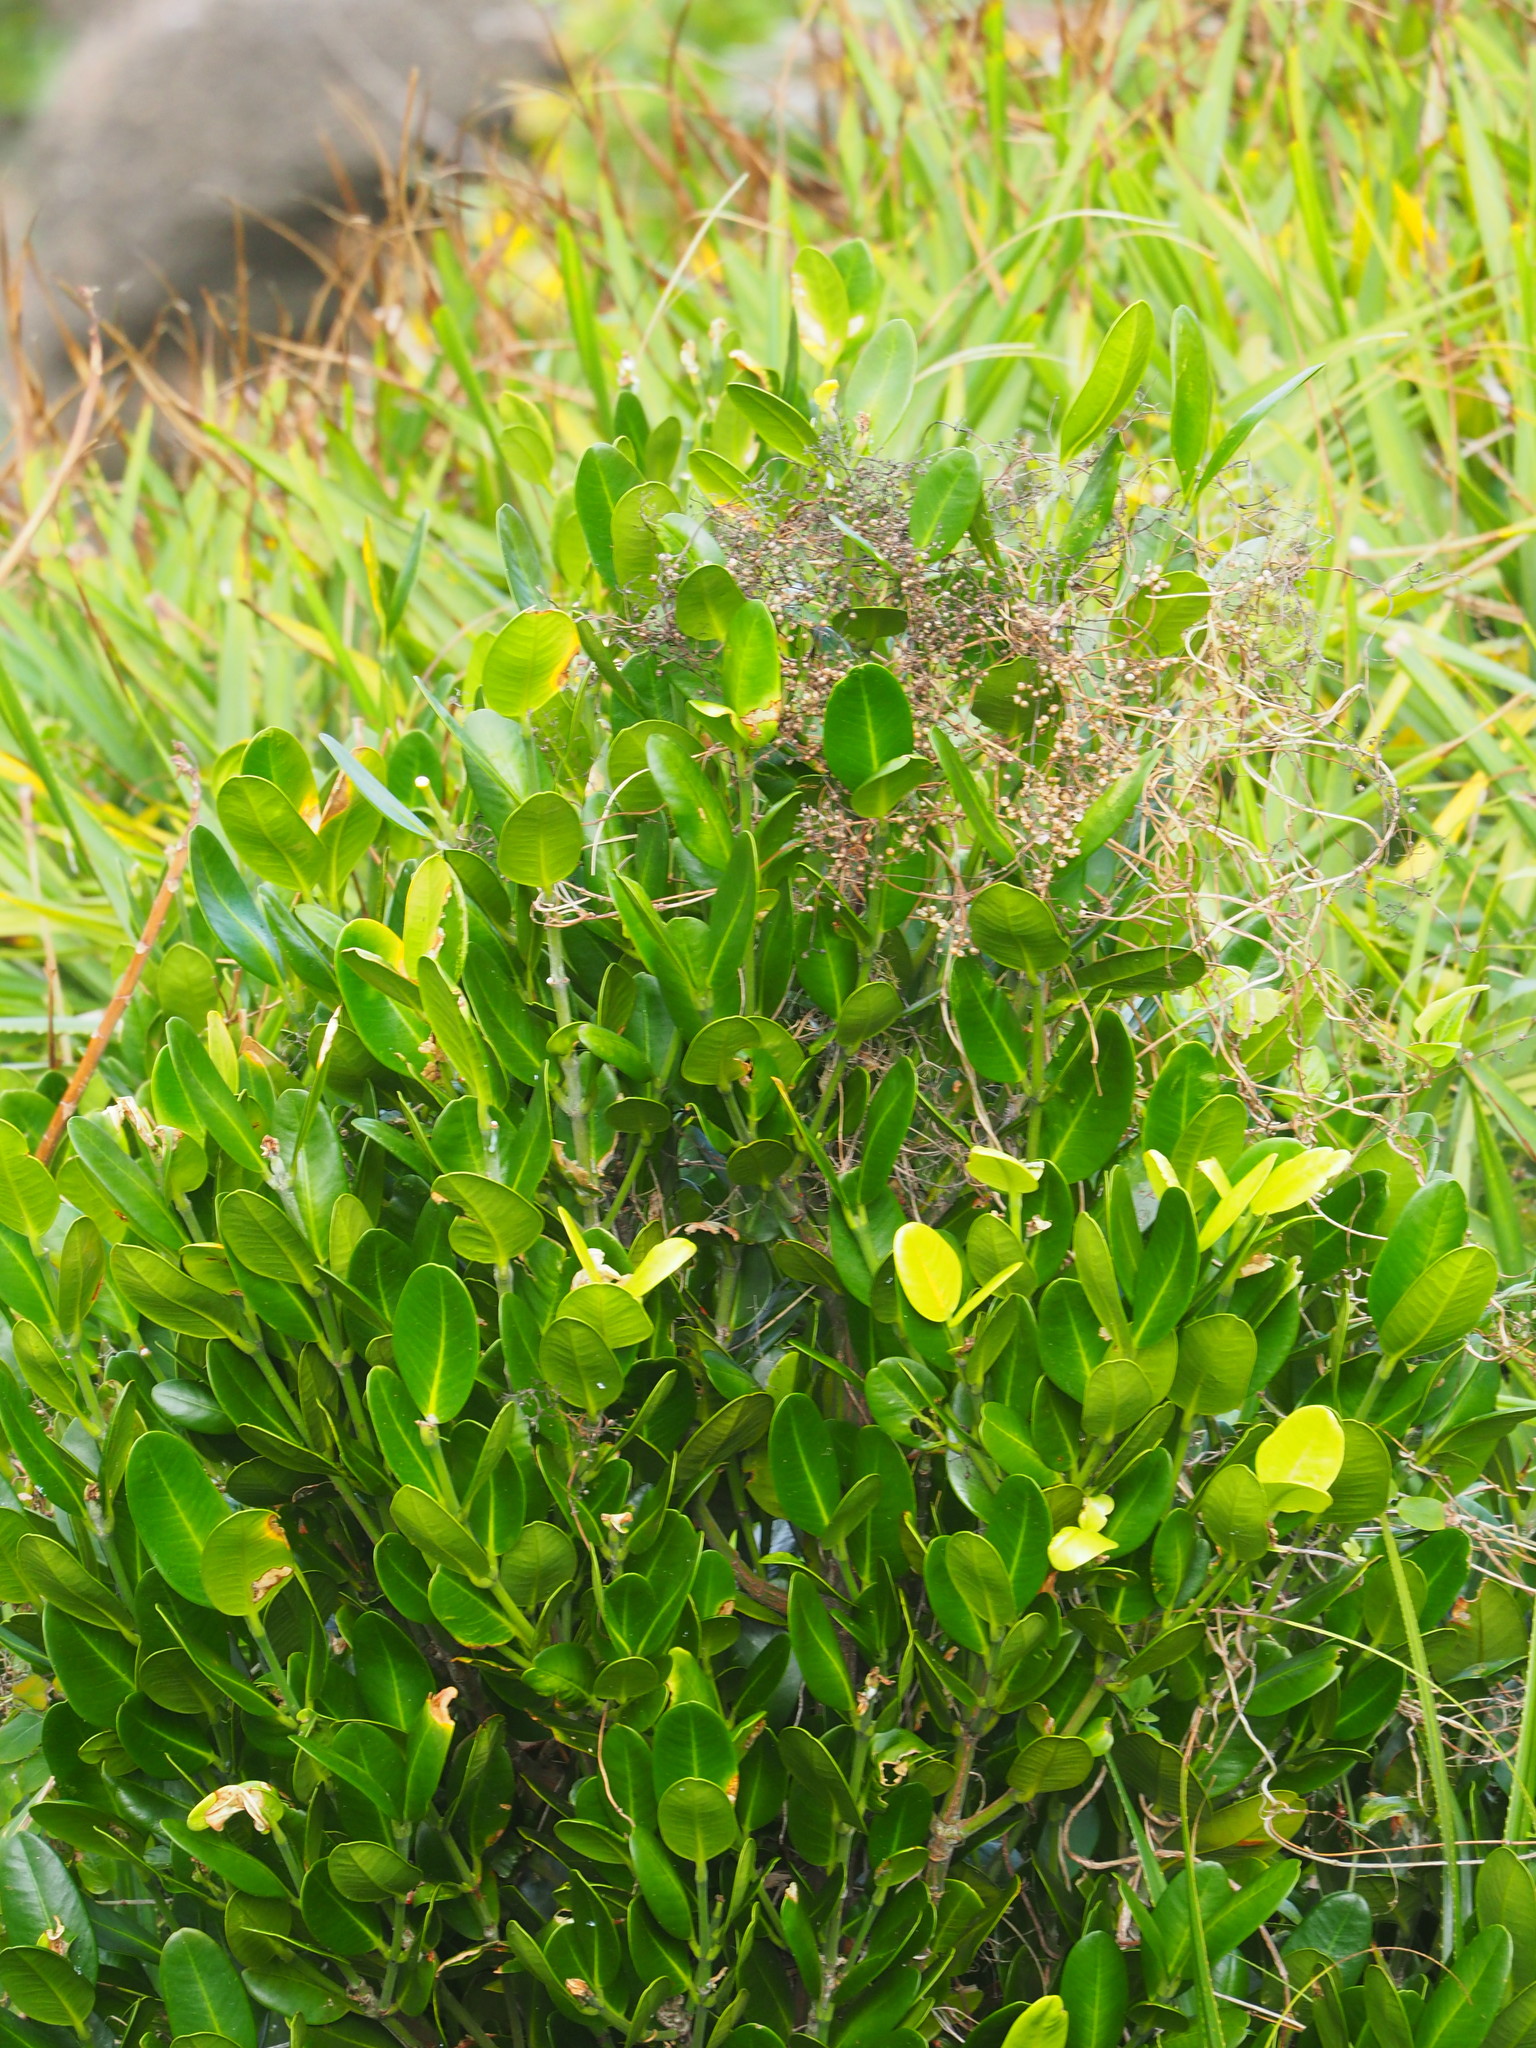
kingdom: Plantae
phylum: Tracheophyta
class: Magnoliopsida
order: Malpighiales
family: Clusiaceae
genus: Garcinia
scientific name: Garcinia subelliptica
